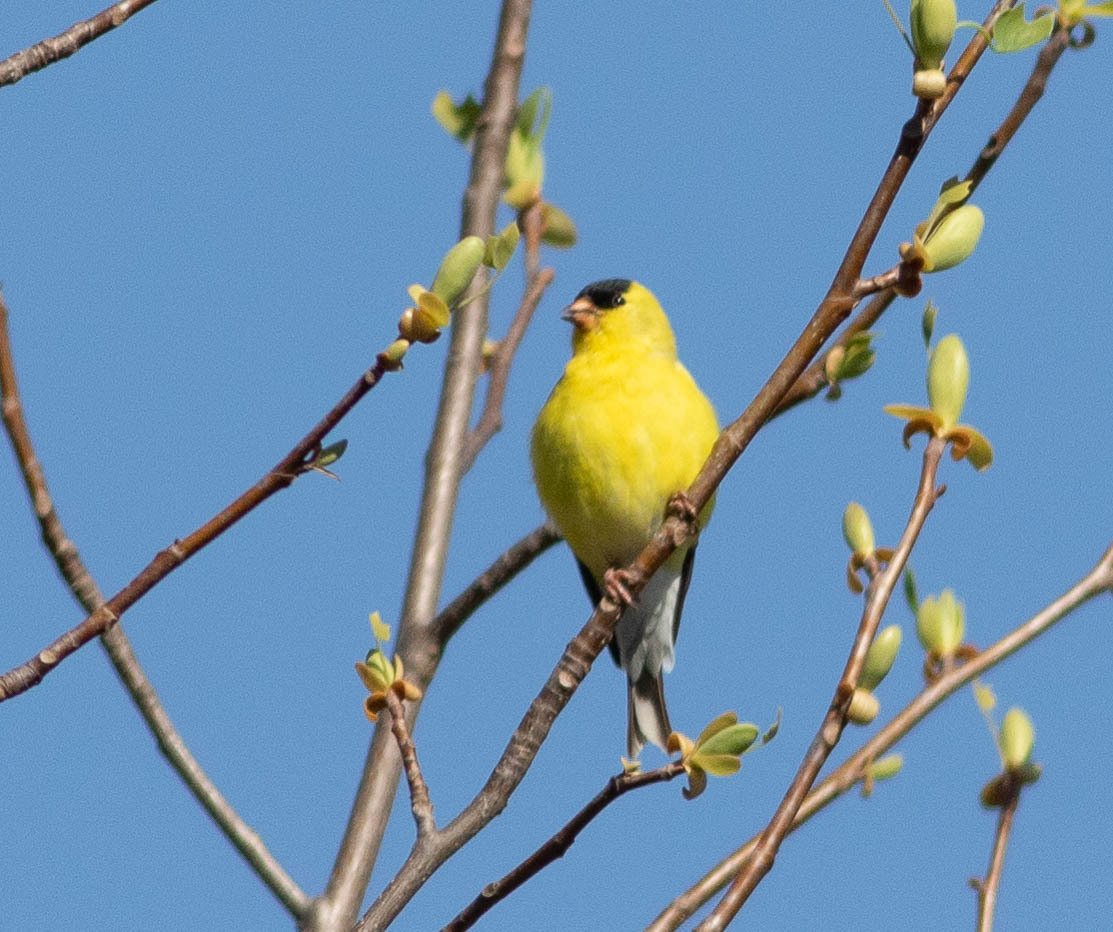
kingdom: Animalia
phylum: Chordata
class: Aves
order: Passeriformes
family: Fringillidae
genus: Spinus
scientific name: Spinus tristis
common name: American goldfinch
